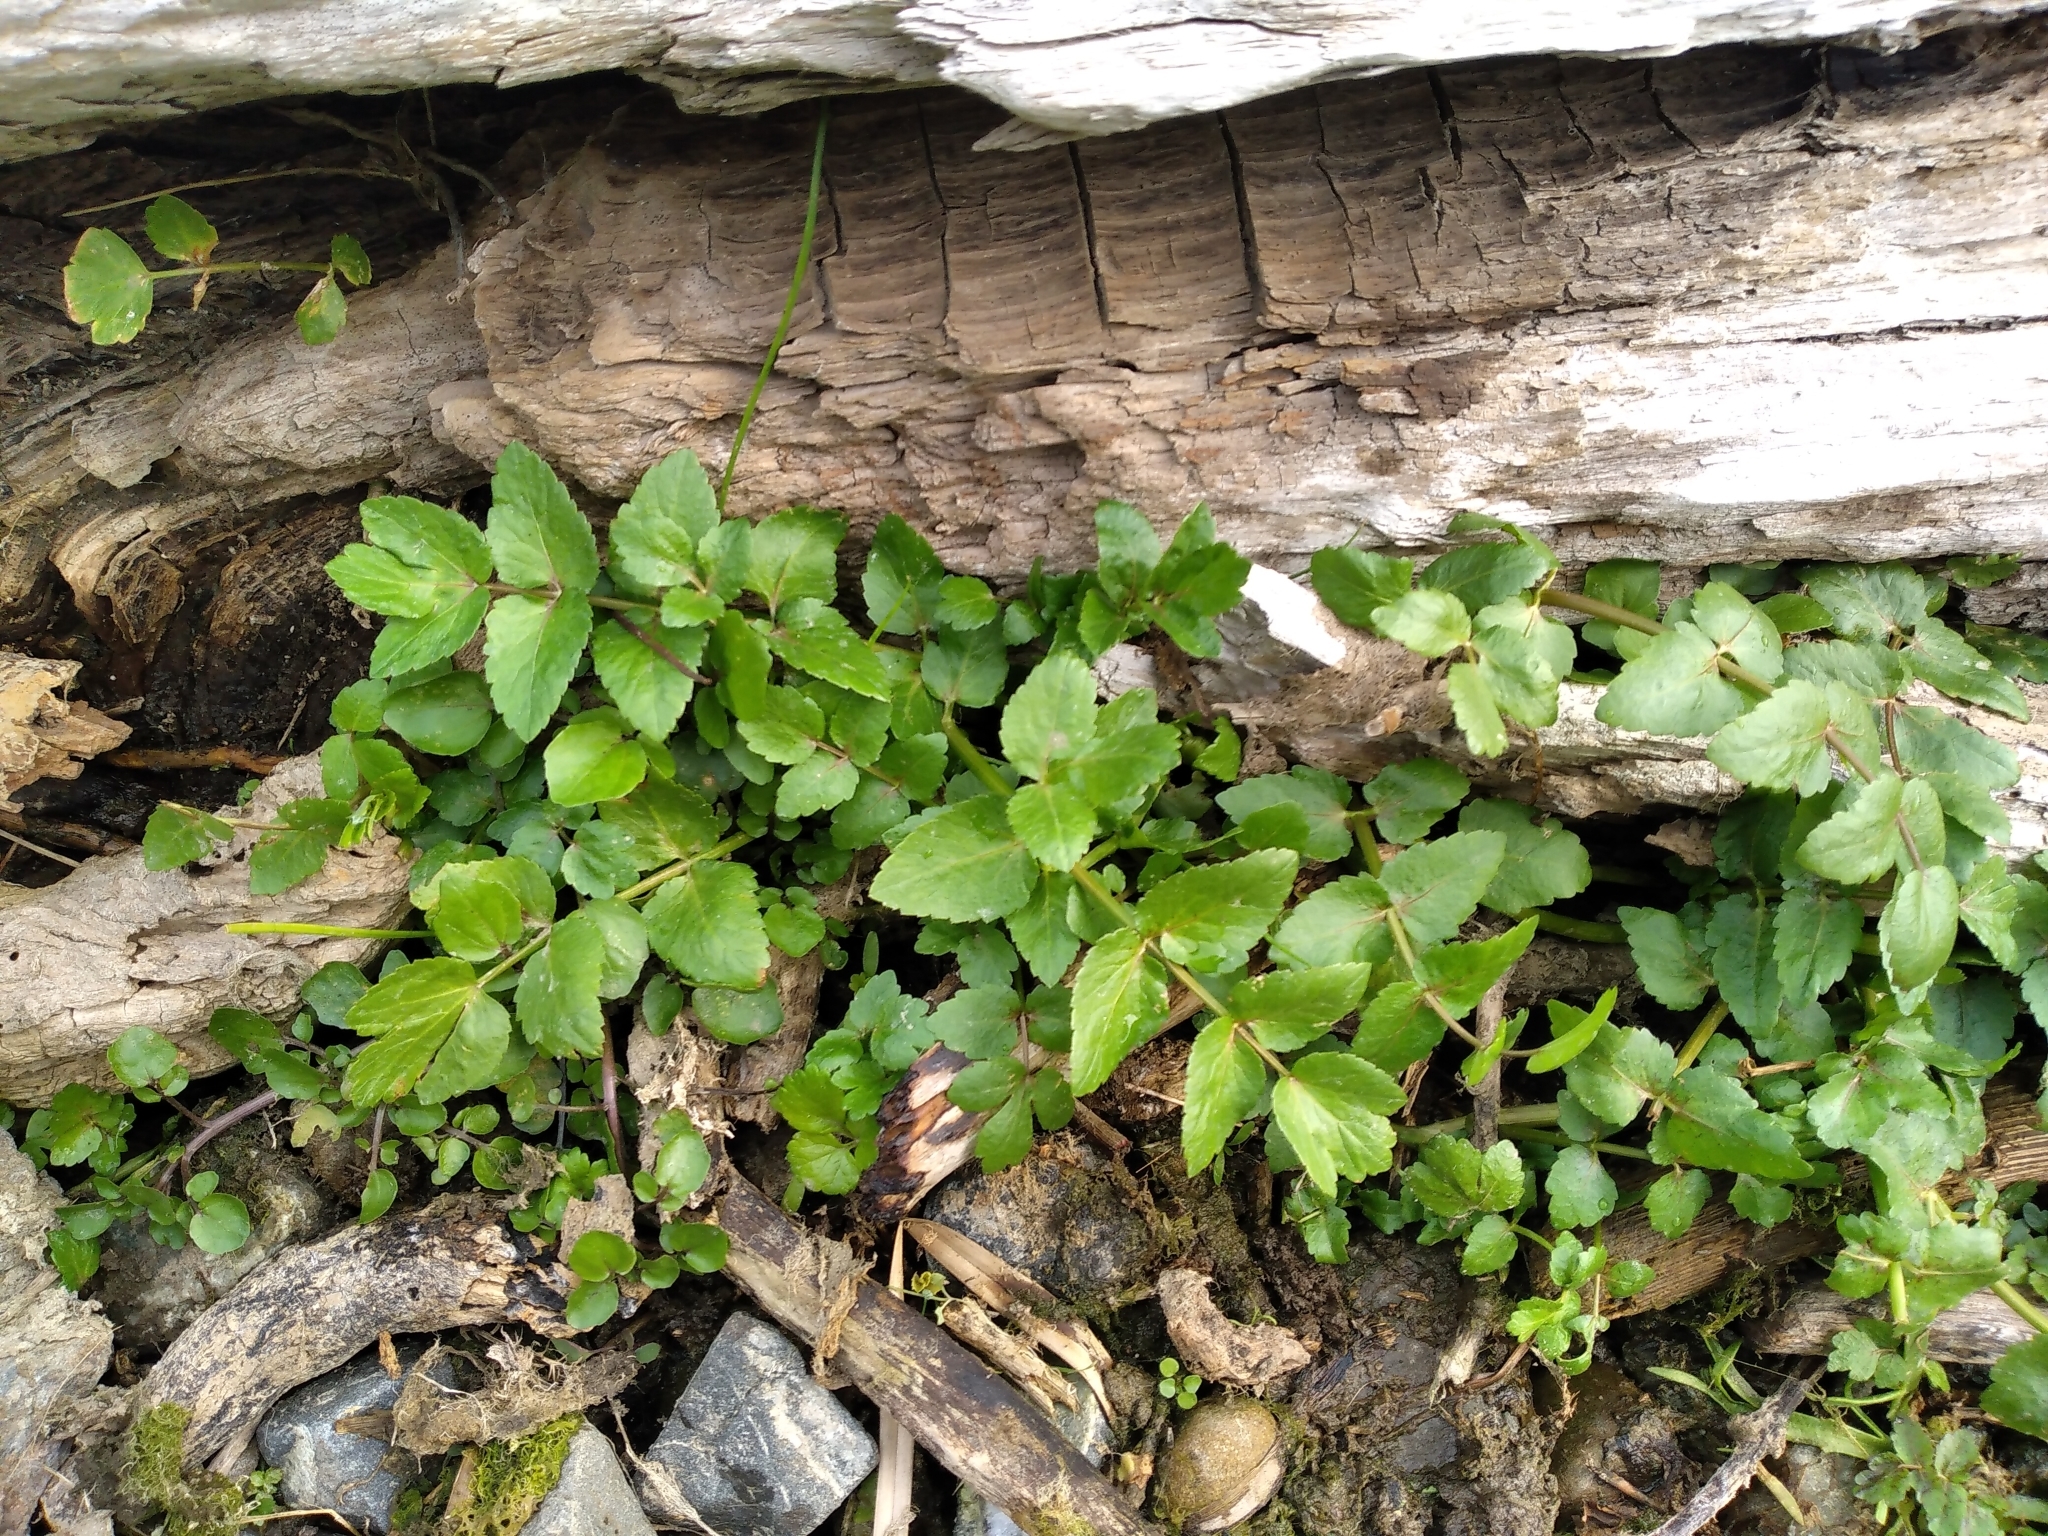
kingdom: Plantae
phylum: Tracheophyta
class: Magnoliopsida
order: Apiales
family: Apiaceae
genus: Helosciadium
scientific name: Helosciadium nodiflorum
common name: Fool's-watercress
